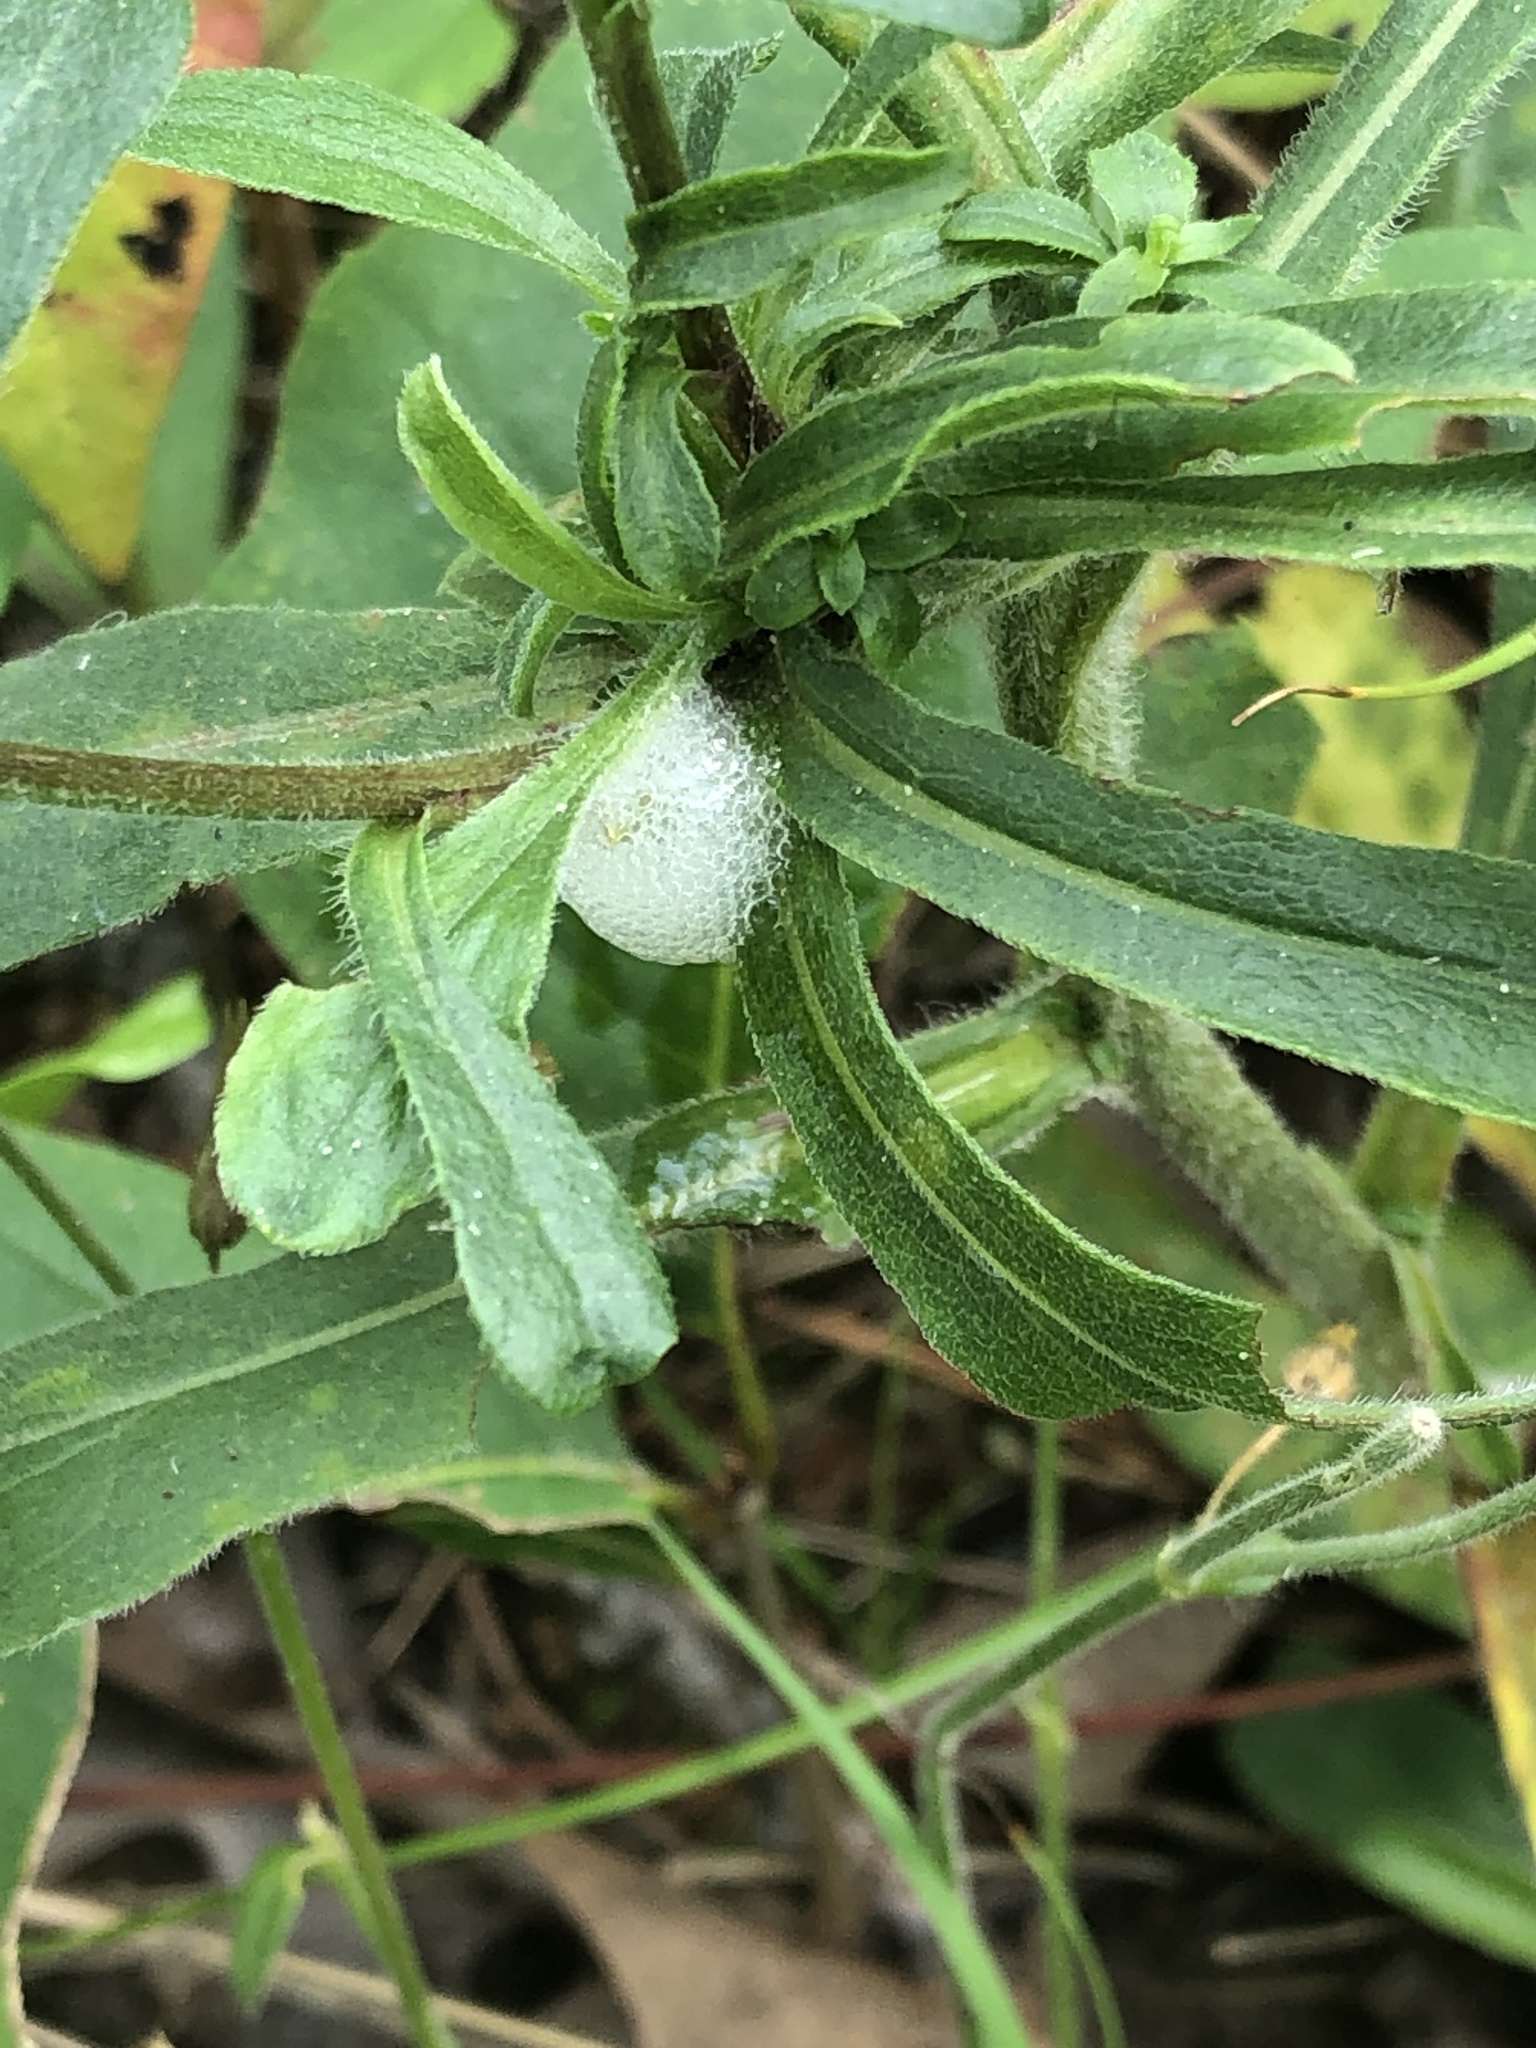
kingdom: Animalia
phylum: Arthropoda
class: Insecta
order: Hemiptera
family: Aphrophoridae
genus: Philaenus
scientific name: Philaenus spumarius
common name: Meadow spittlebug
